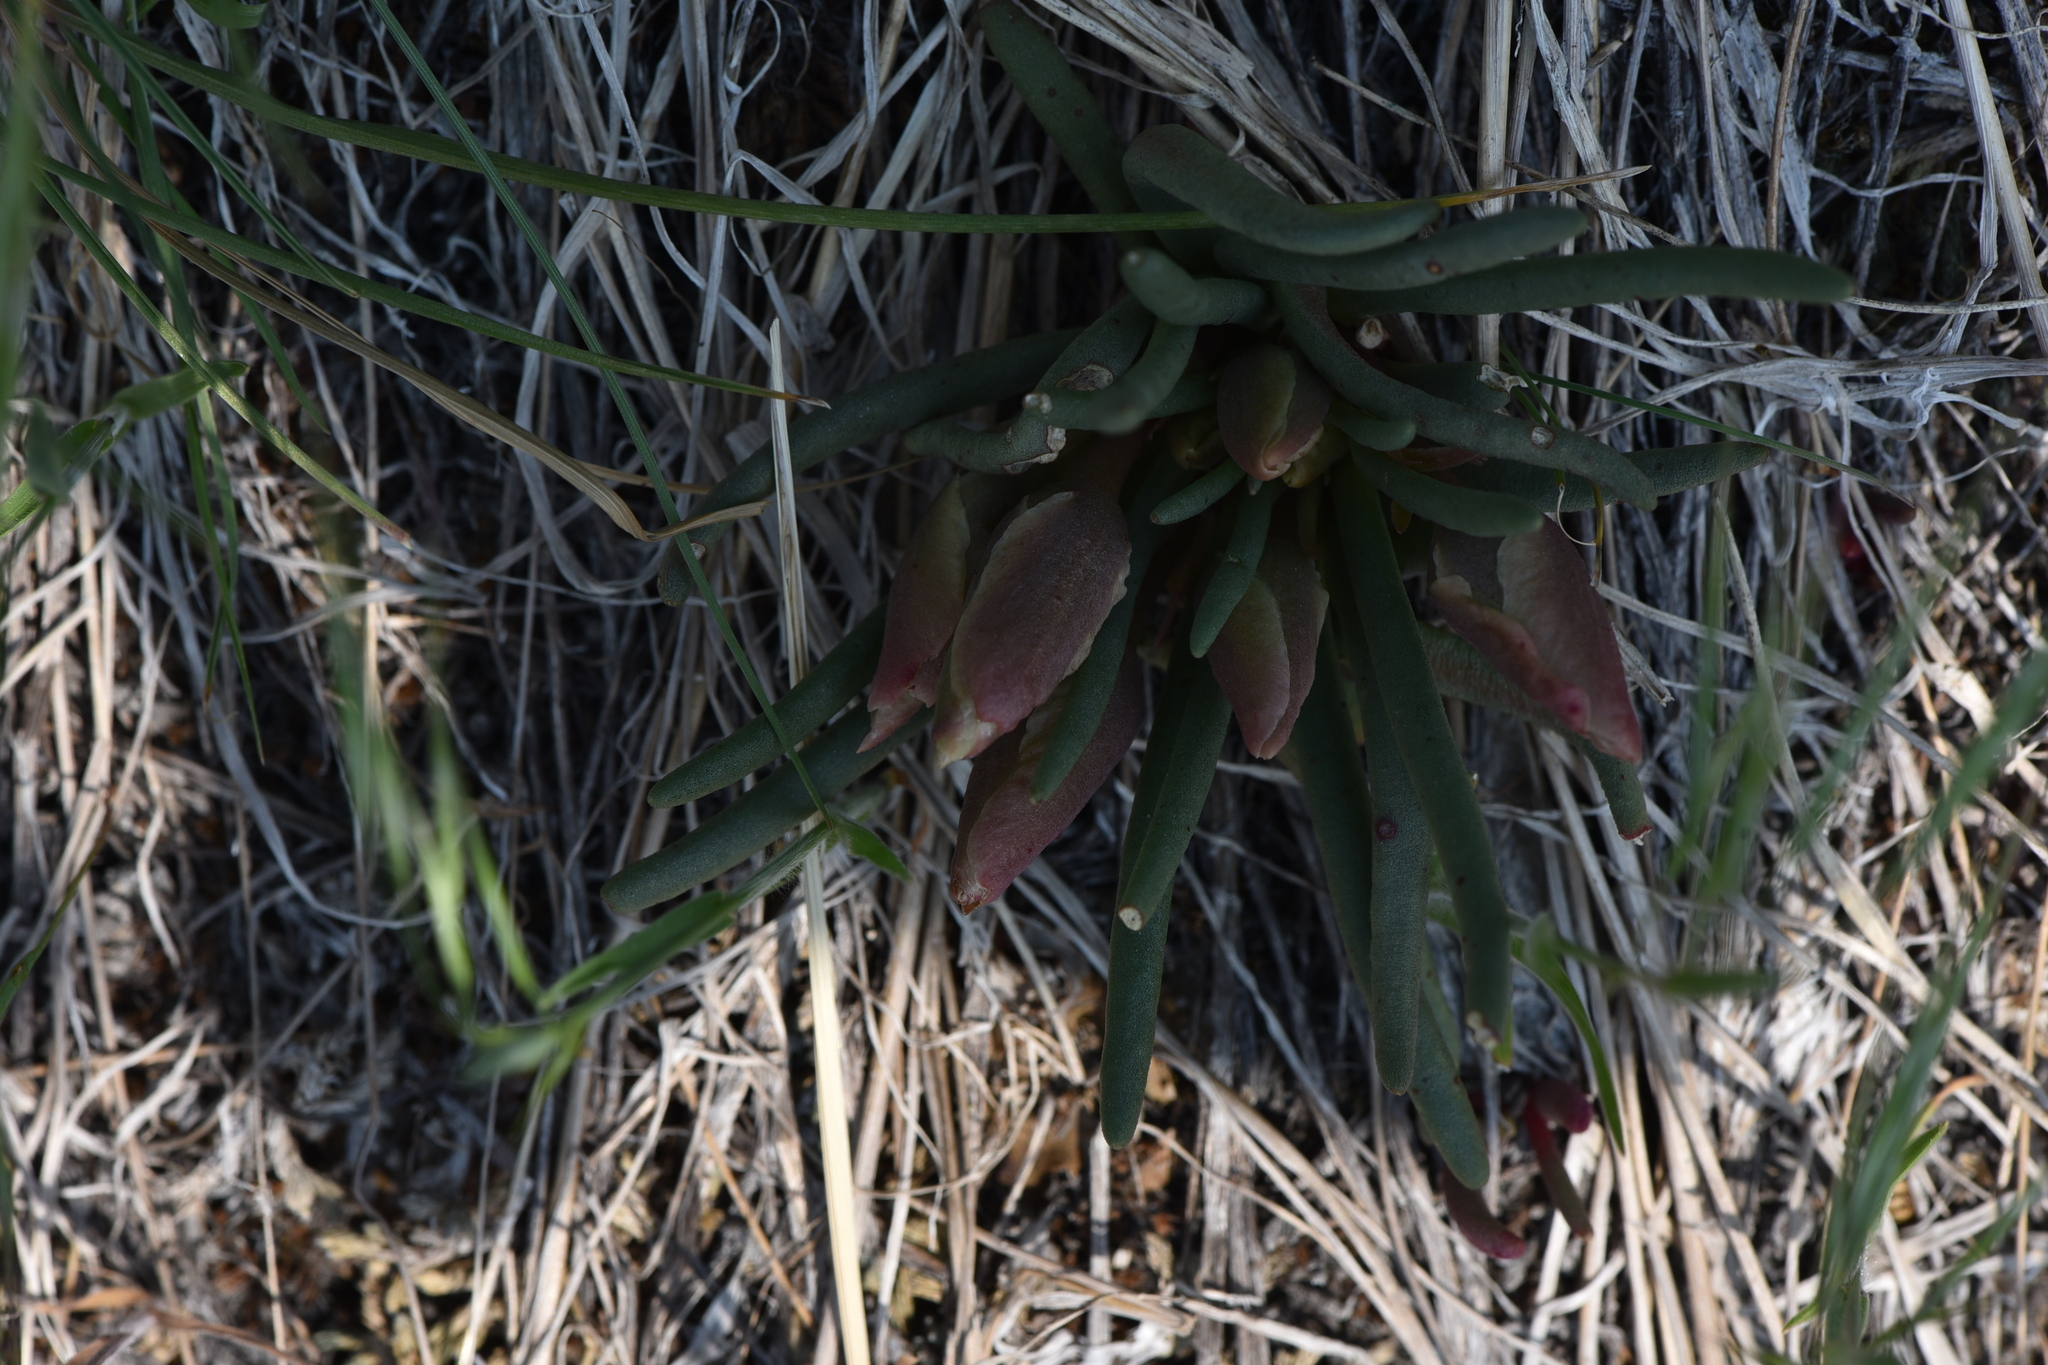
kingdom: Plantae
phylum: Tracheophyta
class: Magnoliopsida
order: Caryophyllales
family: Montiaceae
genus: Lewisia
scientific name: Lewisia rediviva
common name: Bitter-root
